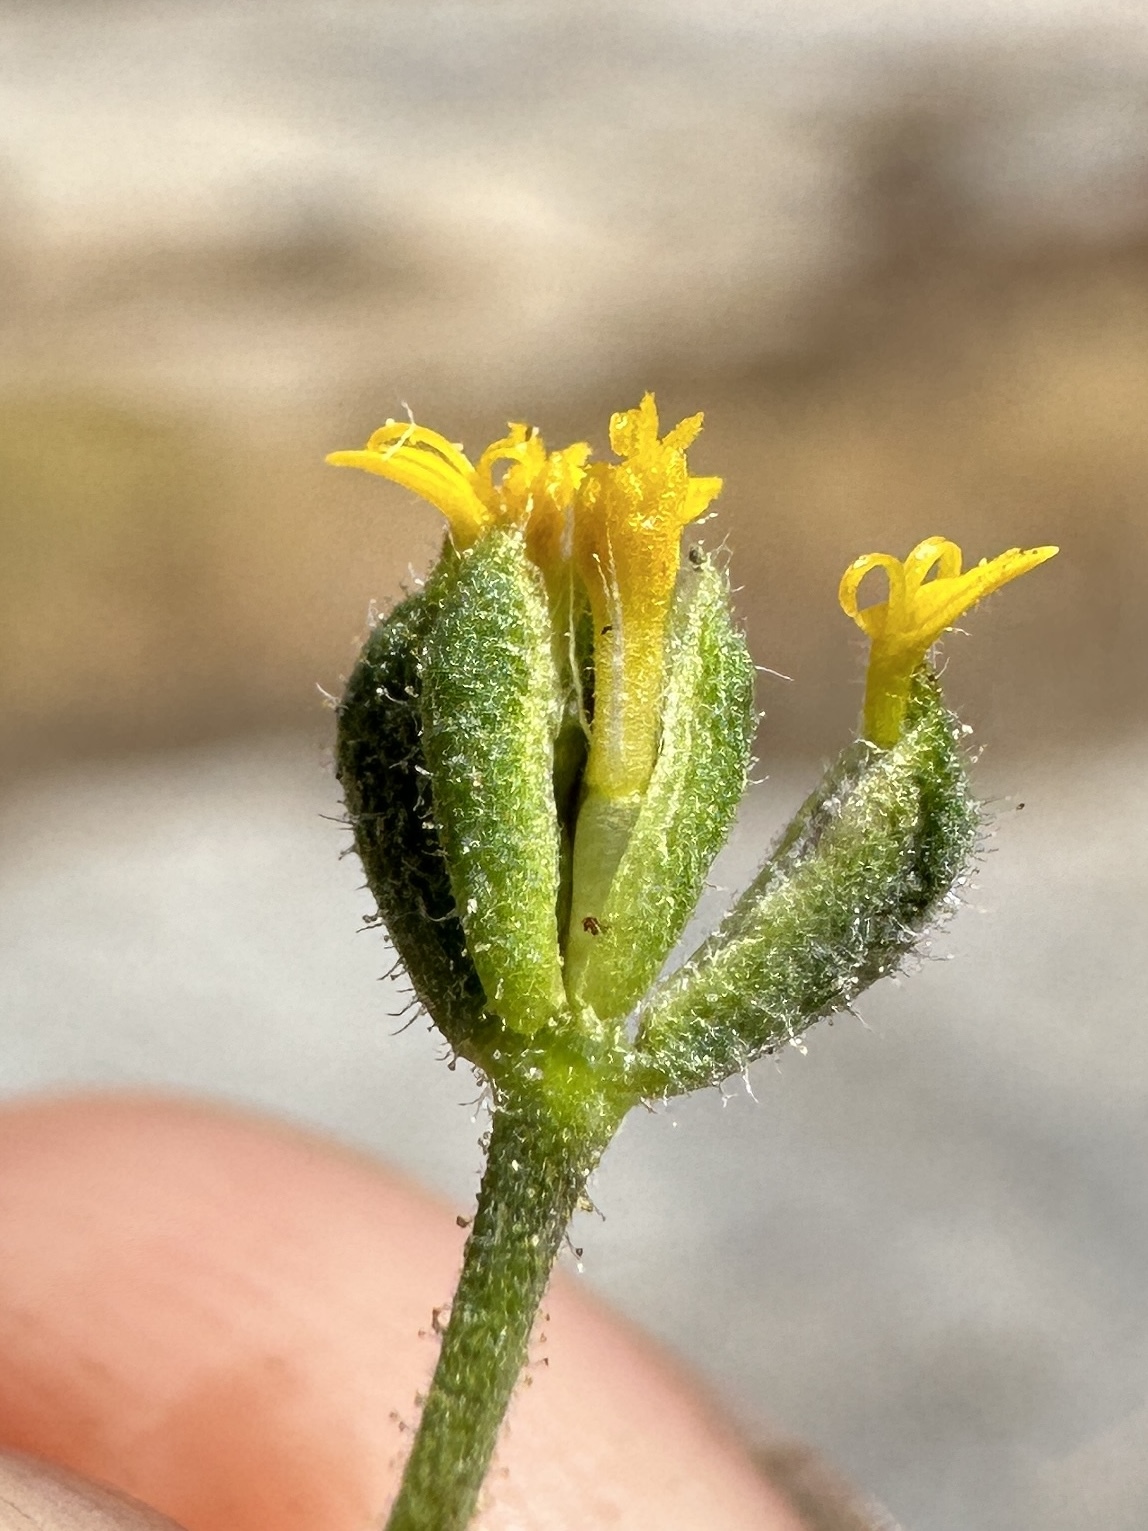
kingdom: Plantae
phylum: Tracheophyta
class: Magnoliopsida
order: Asterales
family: Asteraceae
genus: Jensia
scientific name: Jensia yosemitana
